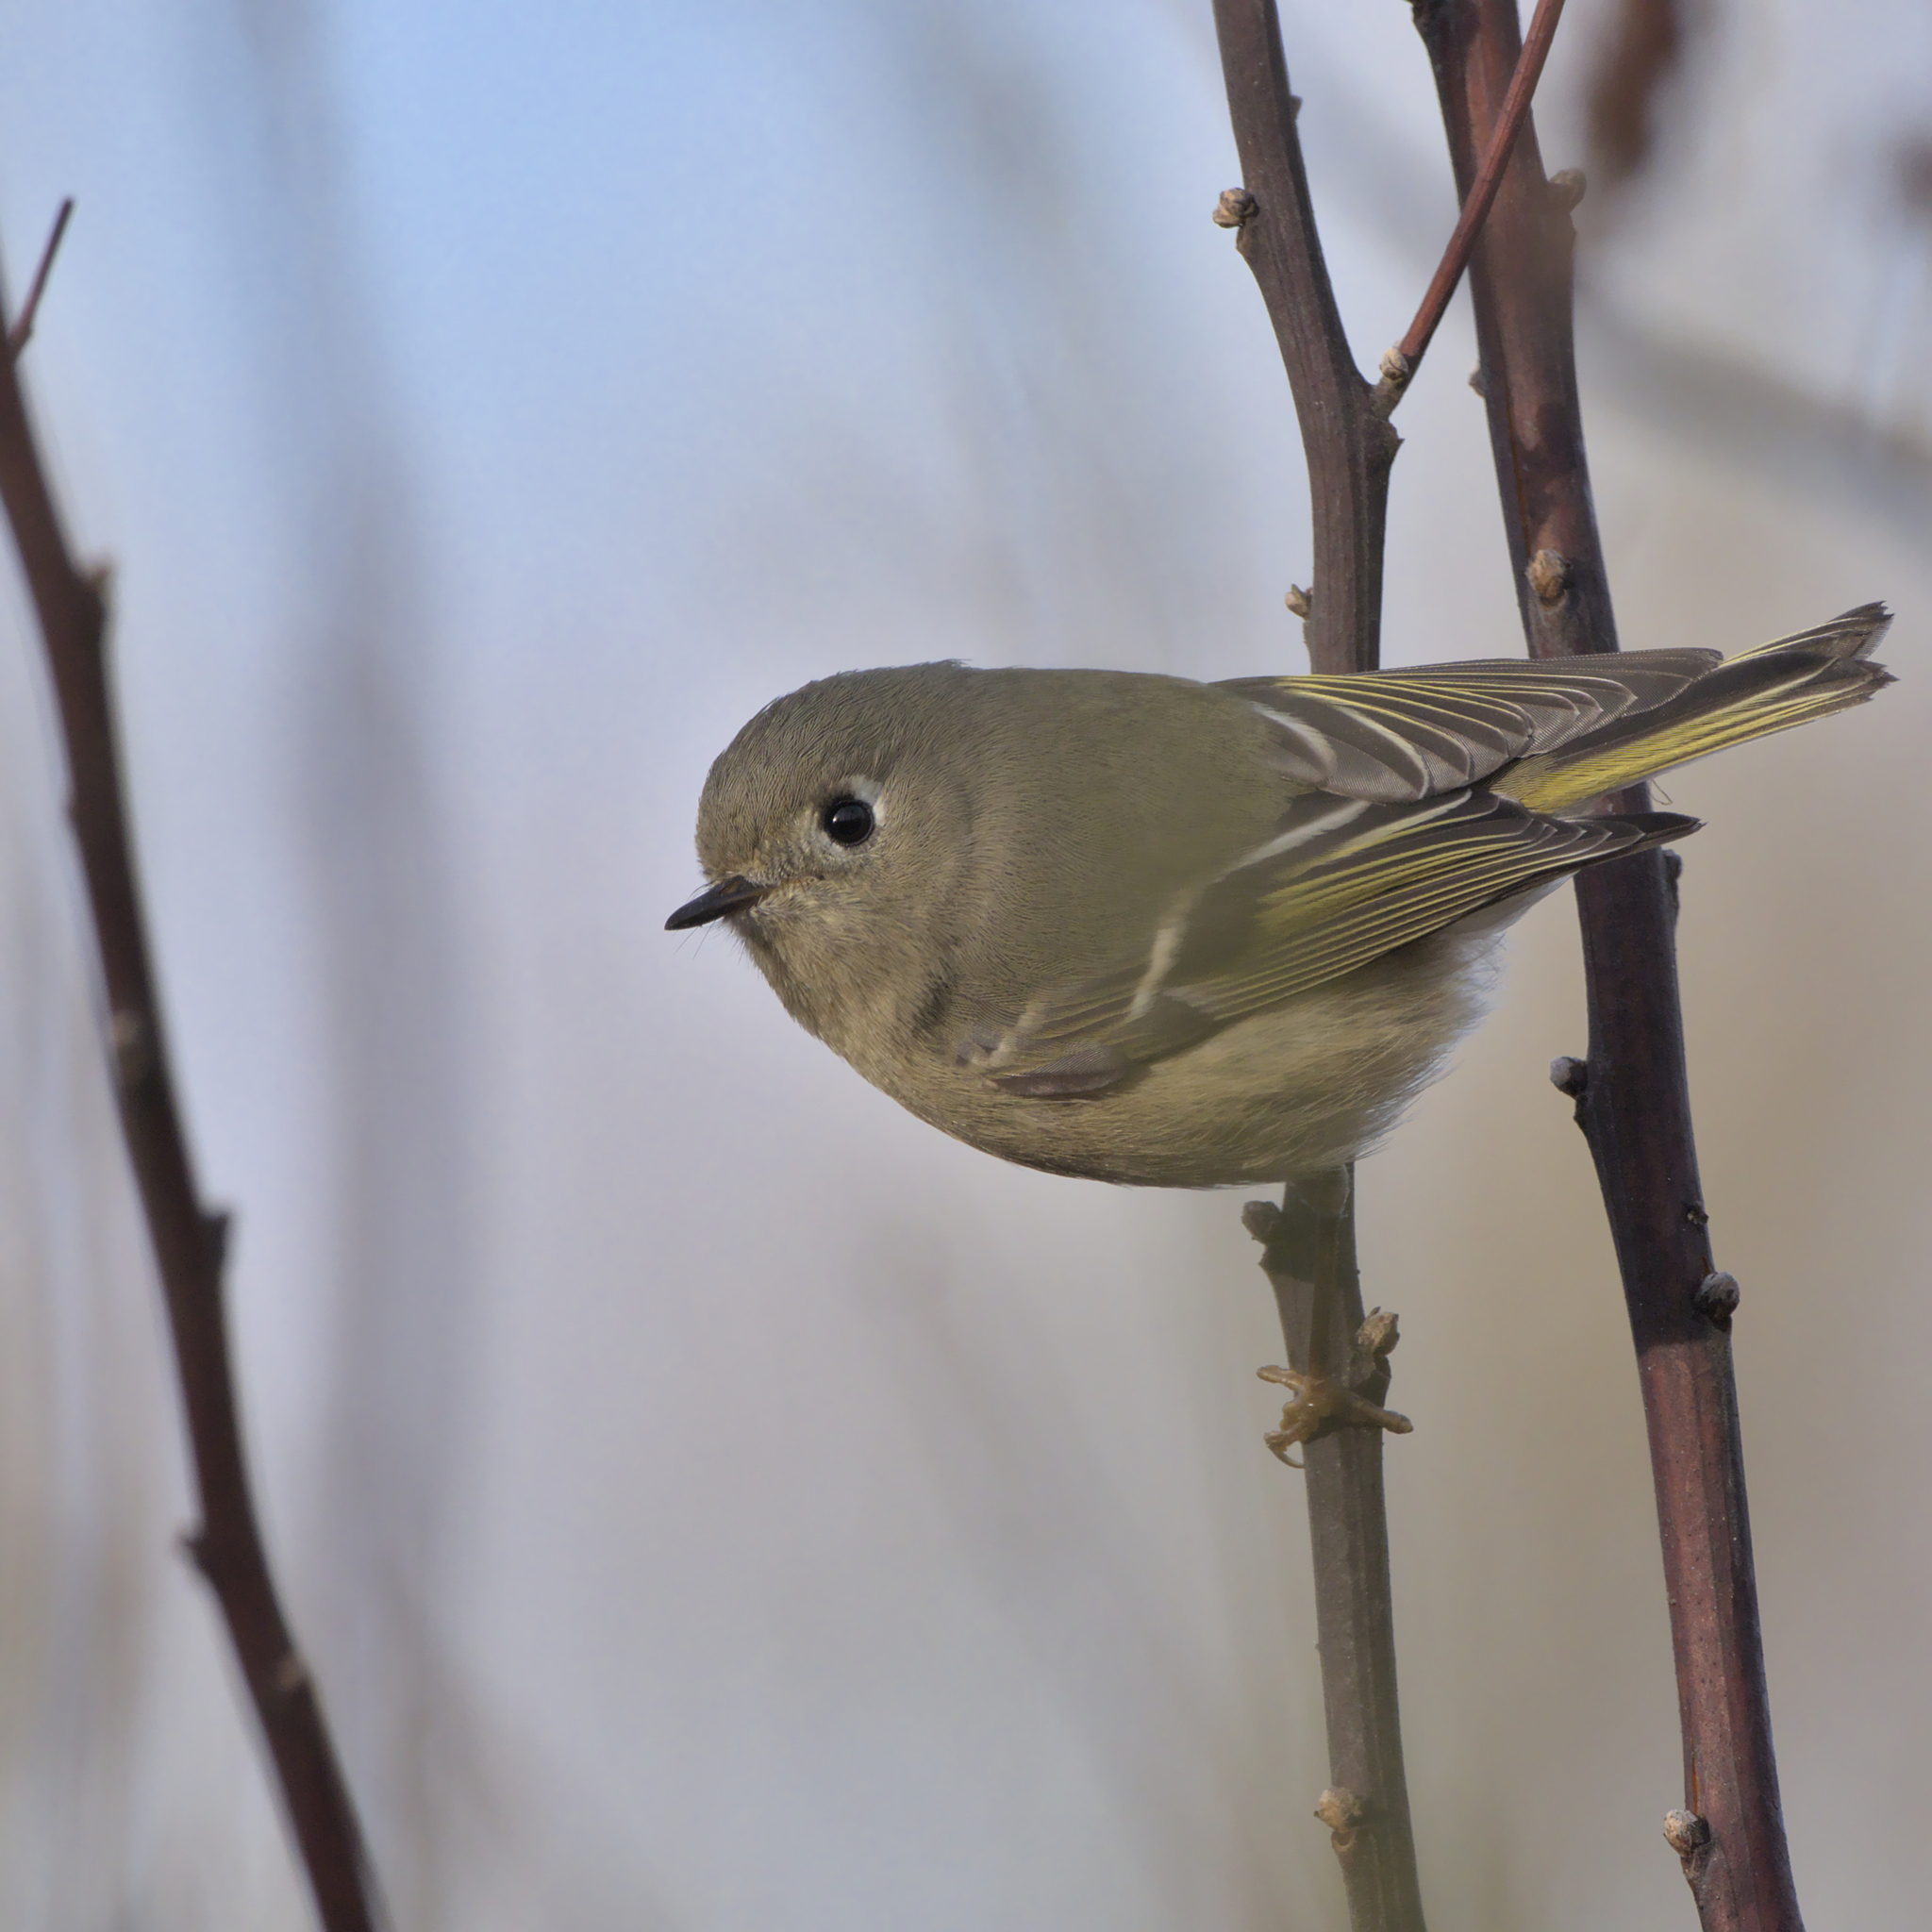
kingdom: Animalia
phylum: Chordata
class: Aves
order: Passeriformes
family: Regulidae
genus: Regulus
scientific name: Regulus calendula
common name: Ruby-crowned kinglet
